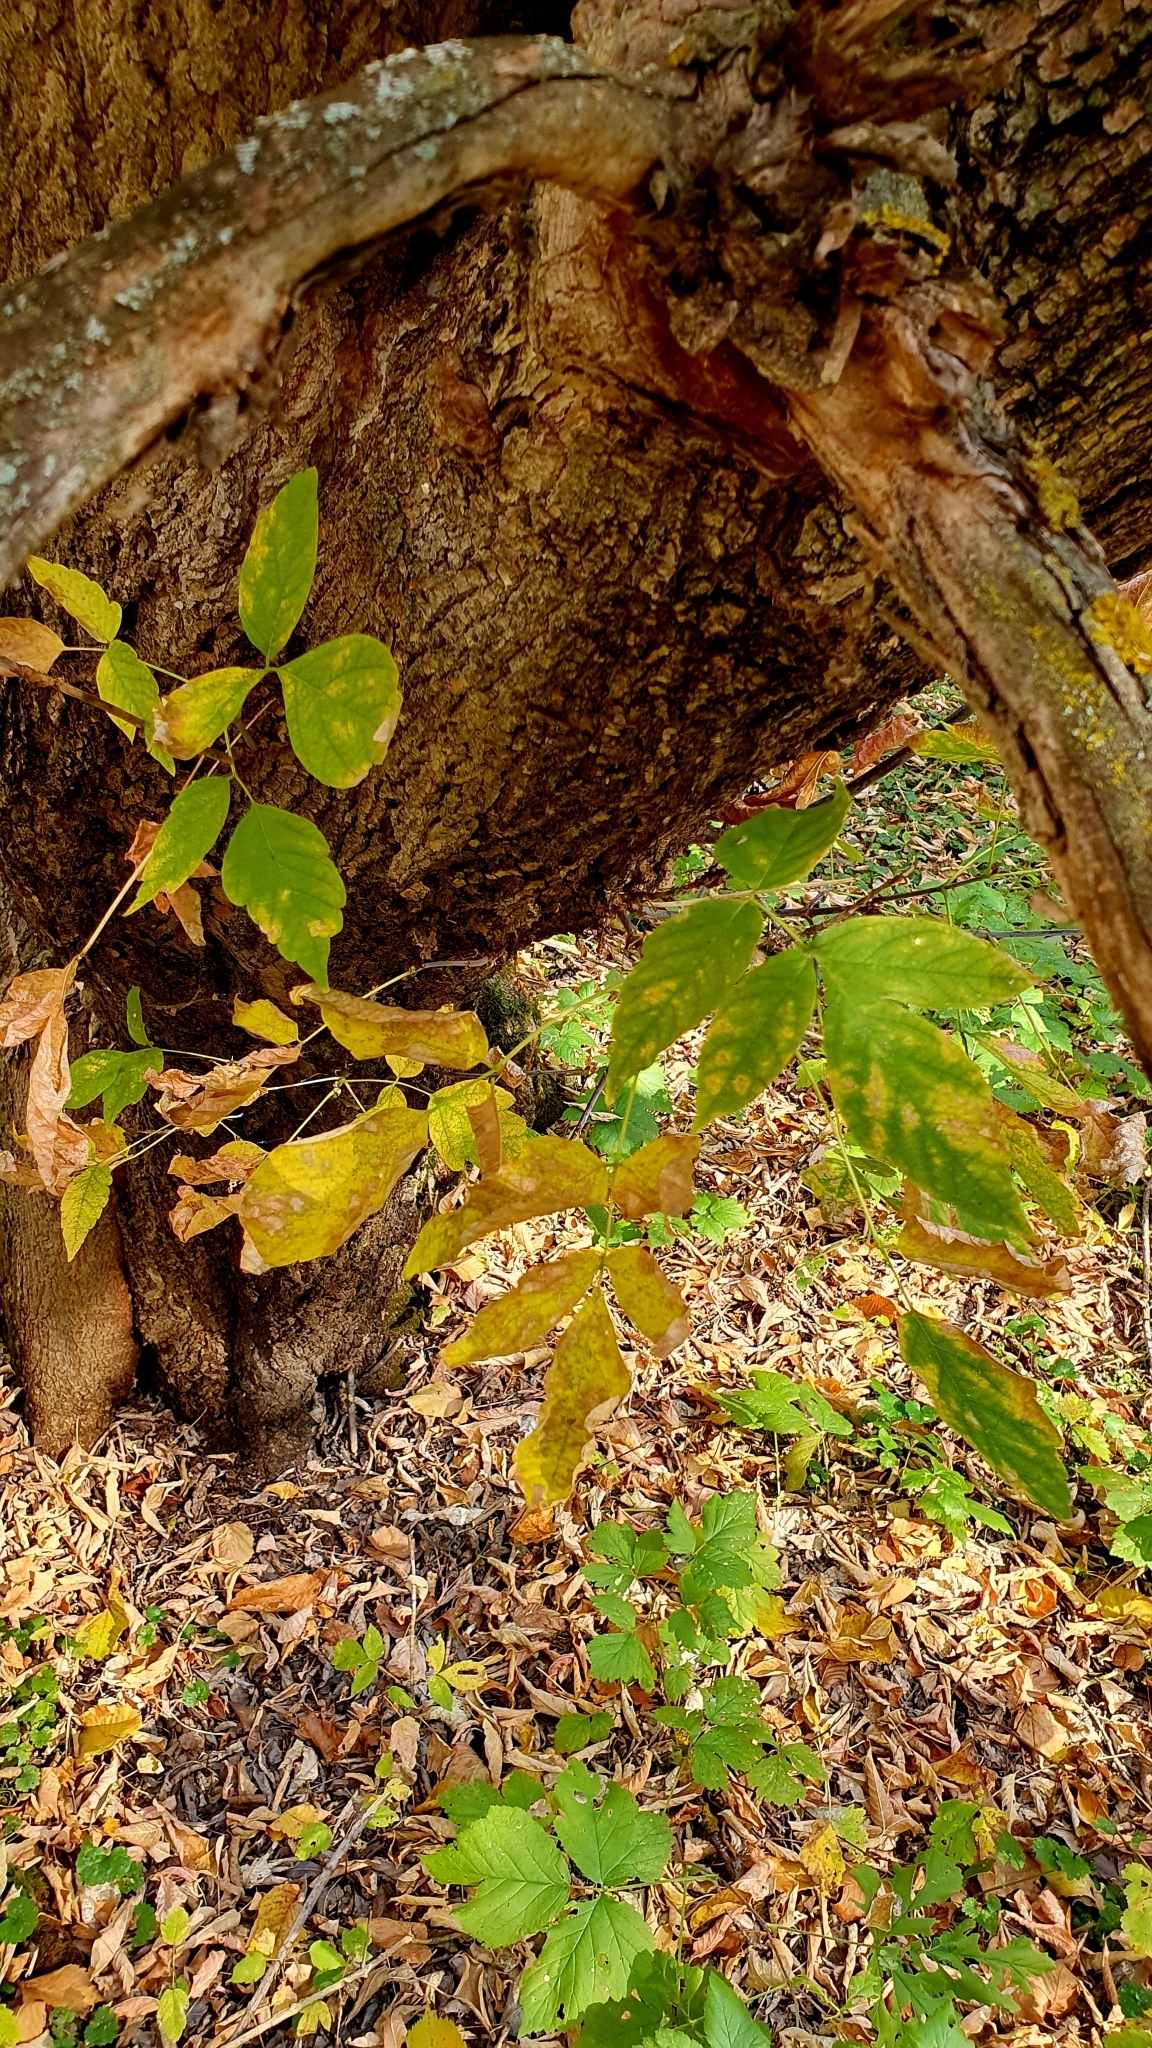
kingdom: Plantae
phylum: Tracheophyta
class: Magnoliopsida
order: Sapindales
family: Sapindaceae
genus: Acer
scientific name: Acer negundo
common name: Ashleaf maple
